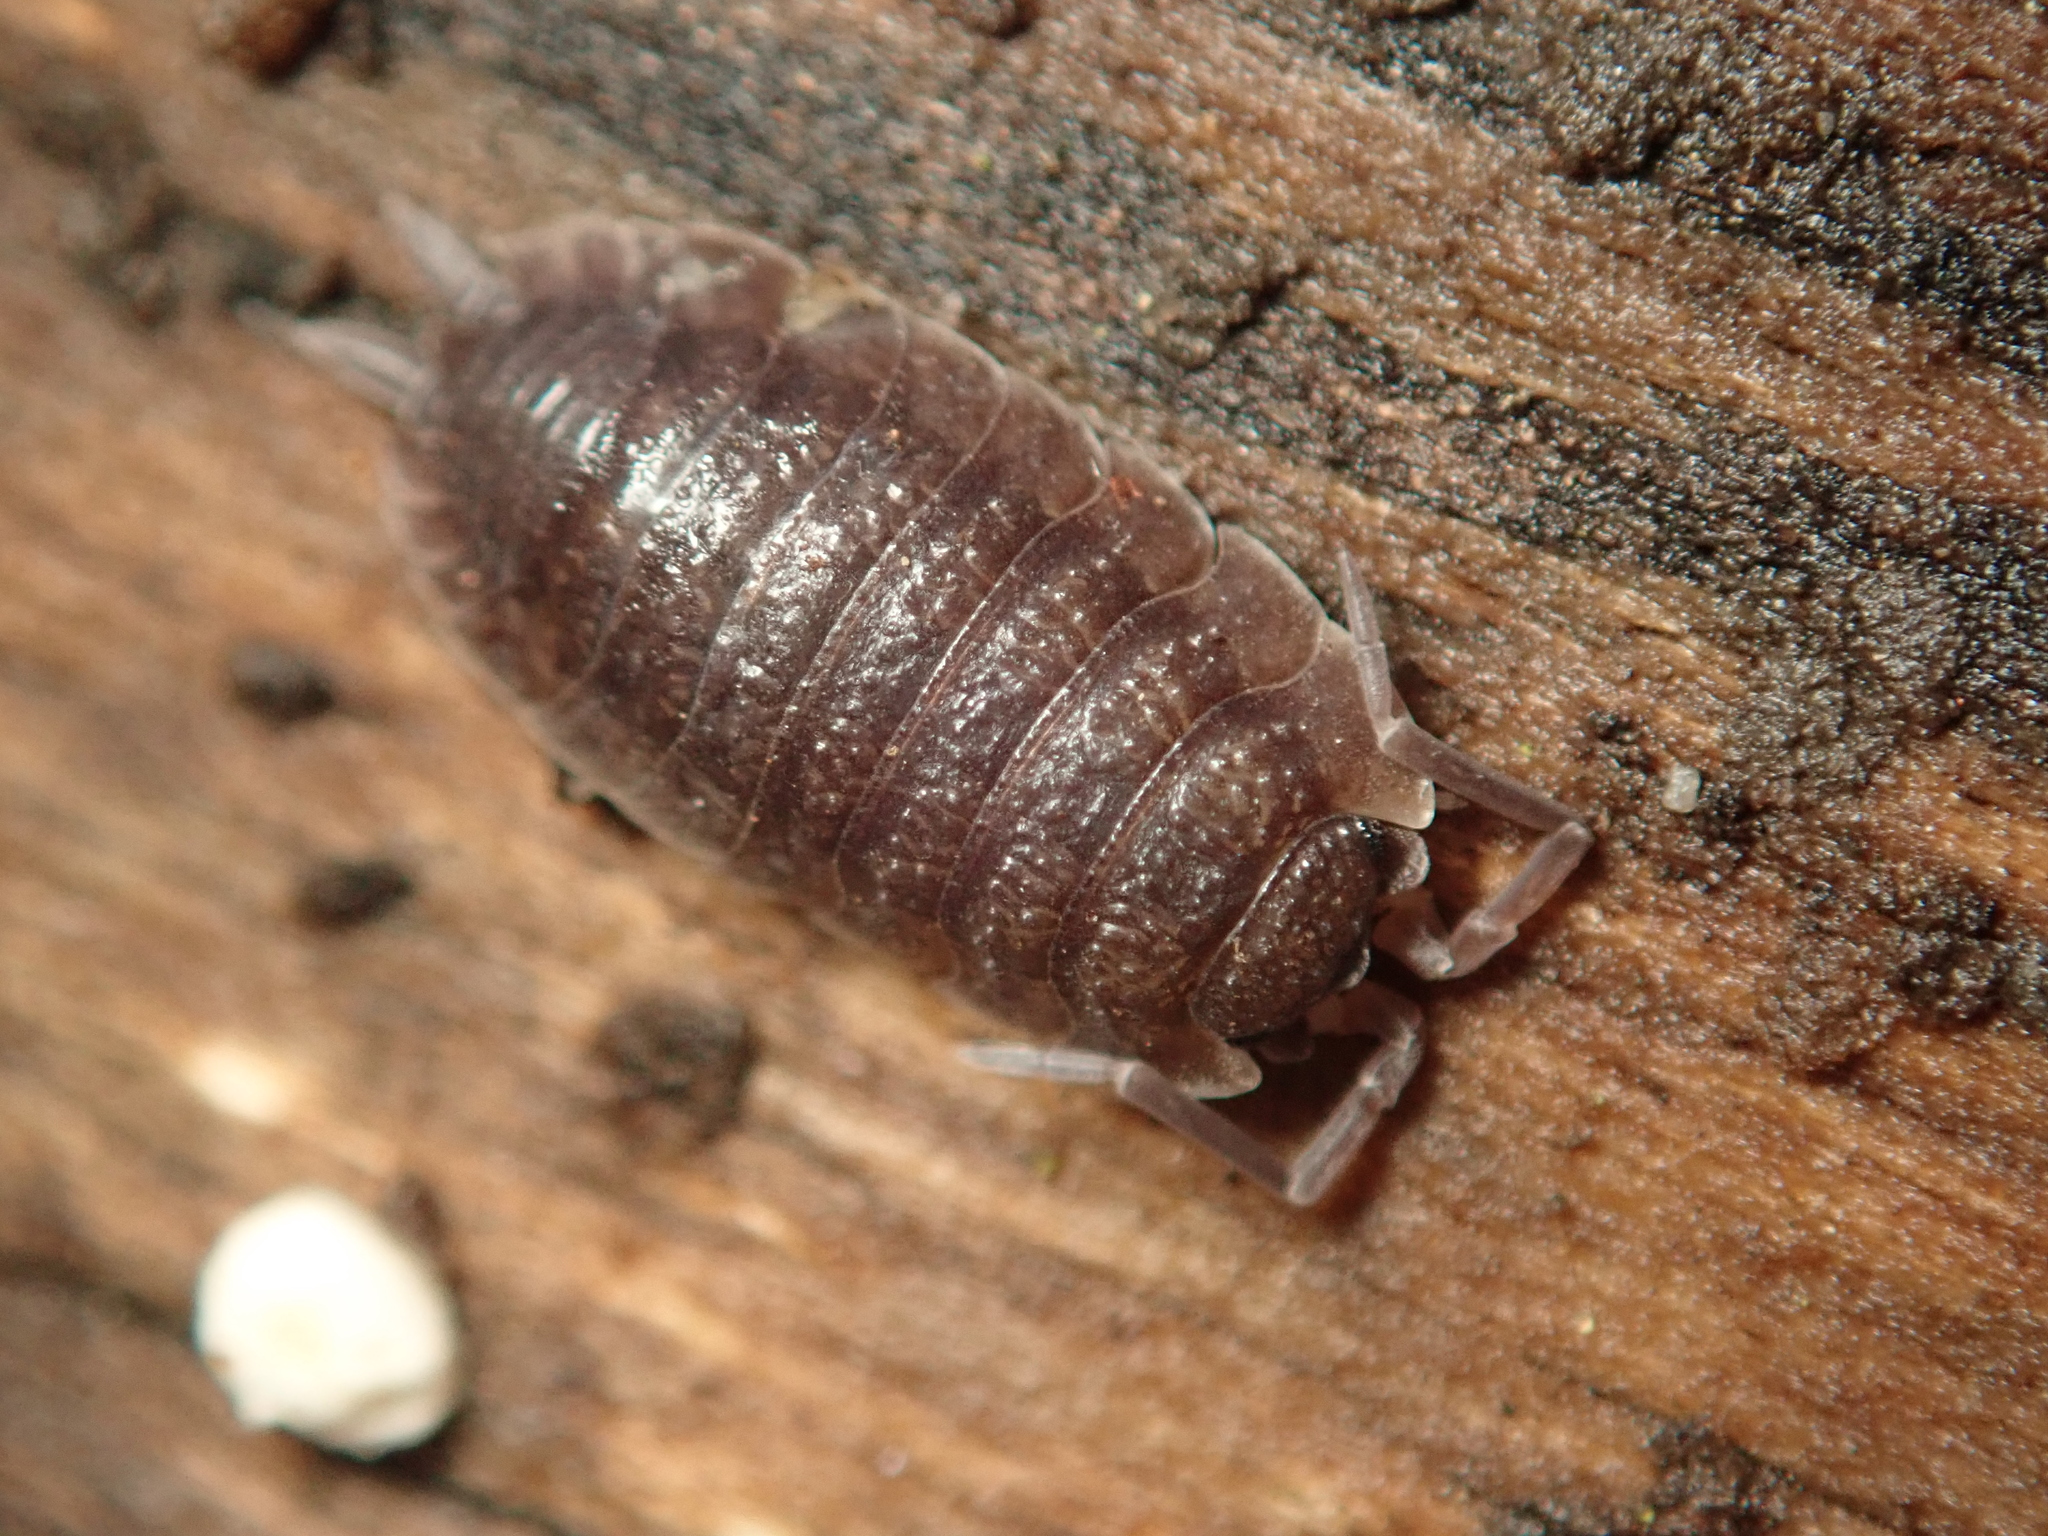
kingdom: Animalia
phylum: Arthropoda
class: Malacostraca
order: Isopoda
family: Porcellionidae
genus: Porcellio
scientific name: Porcellio scaber
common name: Common rough woodlouse
